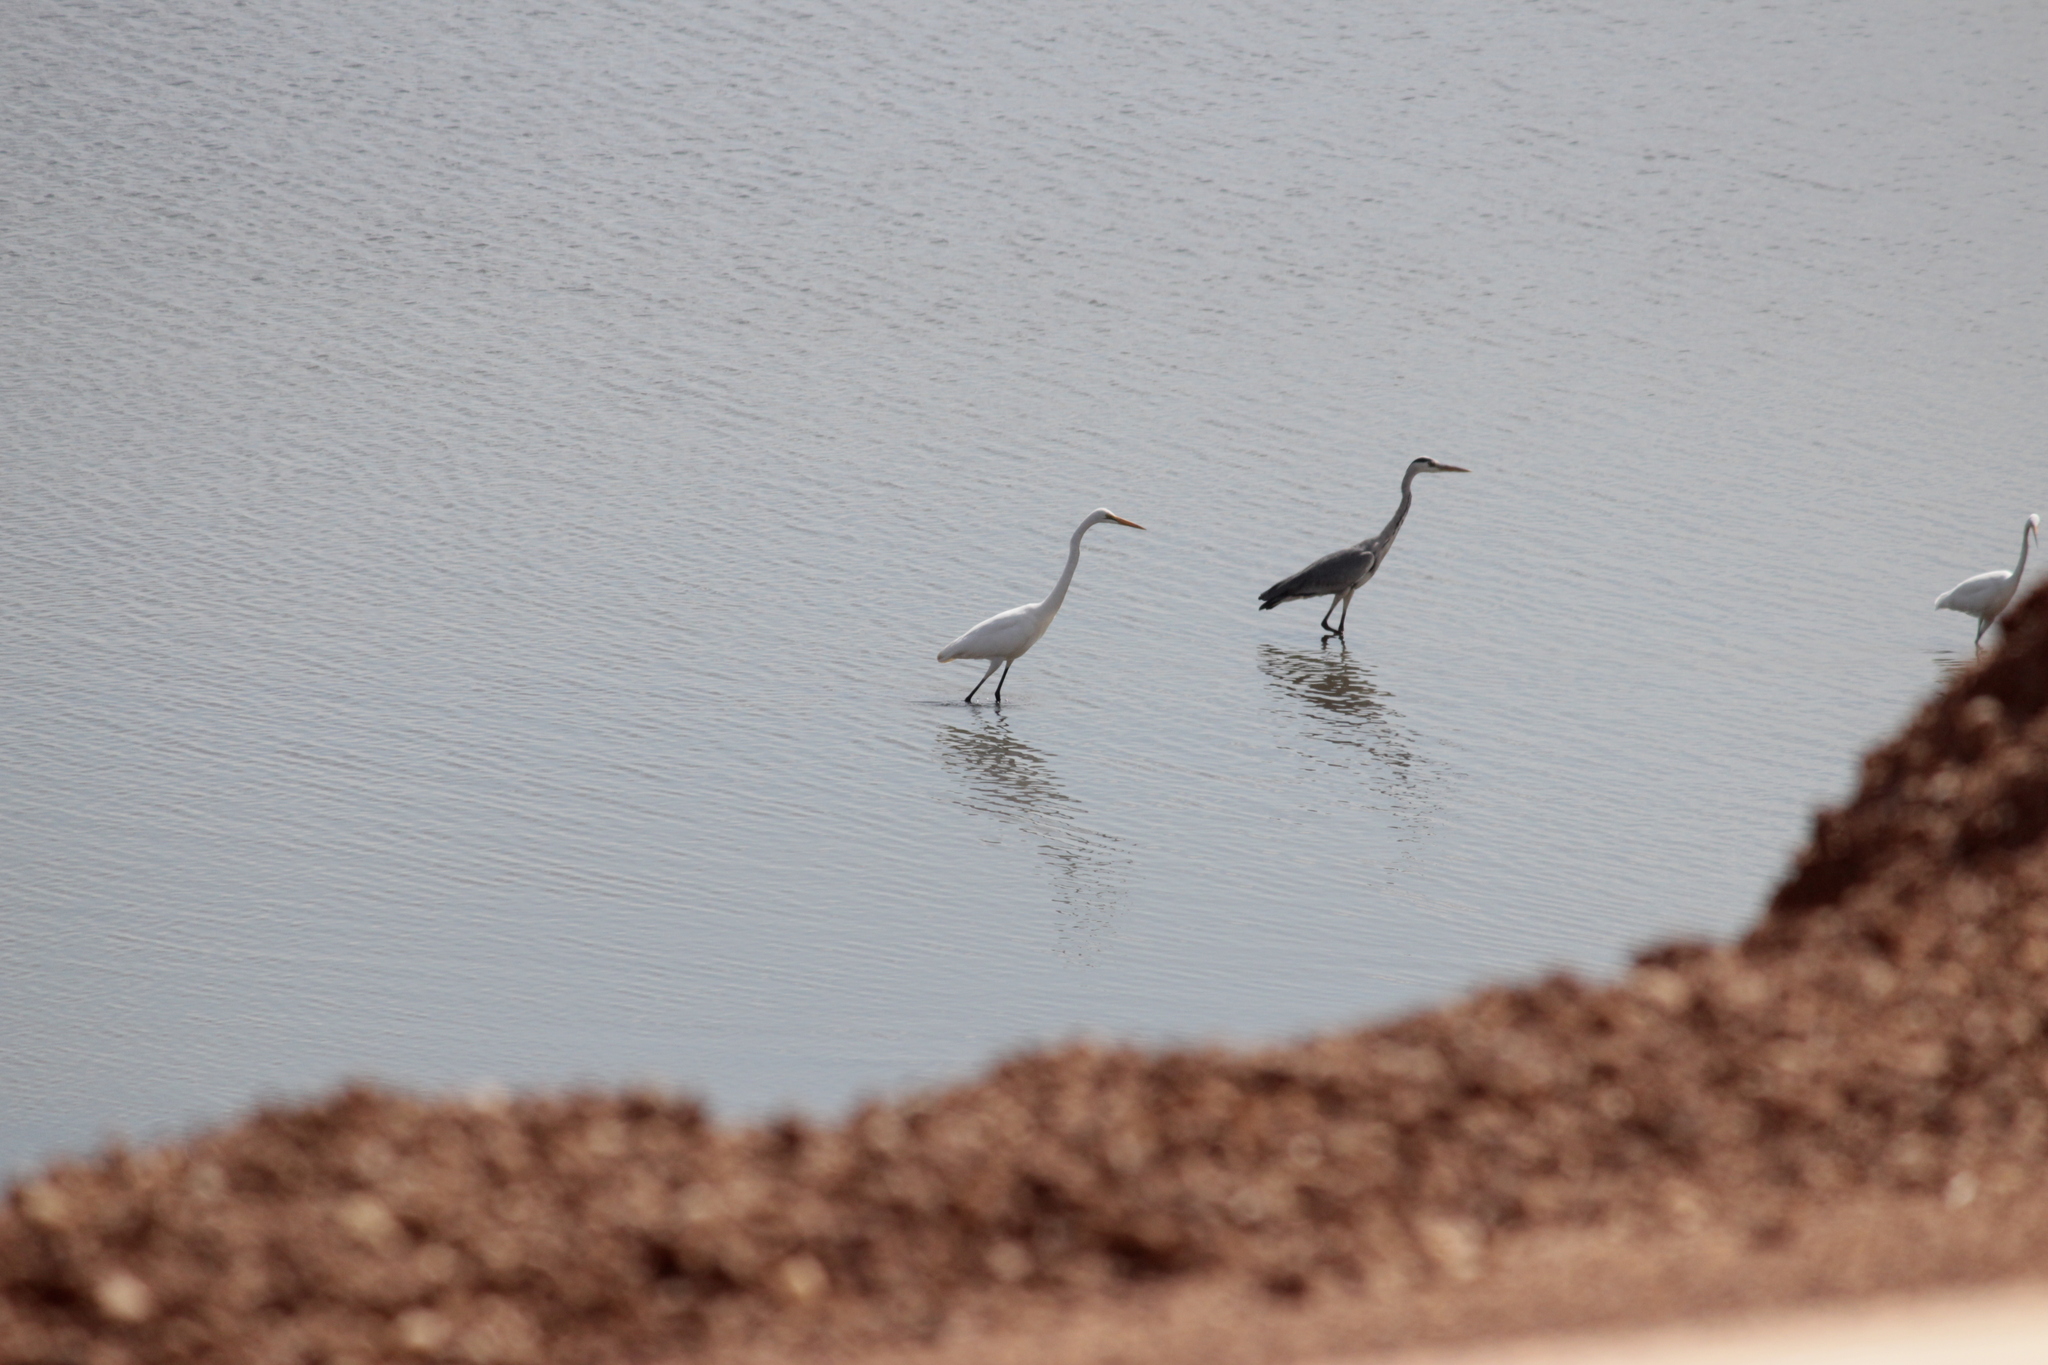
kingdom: Animalia
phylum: Chordata
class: Aves
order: Pelecaniformes
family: Ardeidae
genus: Ardea
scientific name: Ardea alba
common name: Great egret
